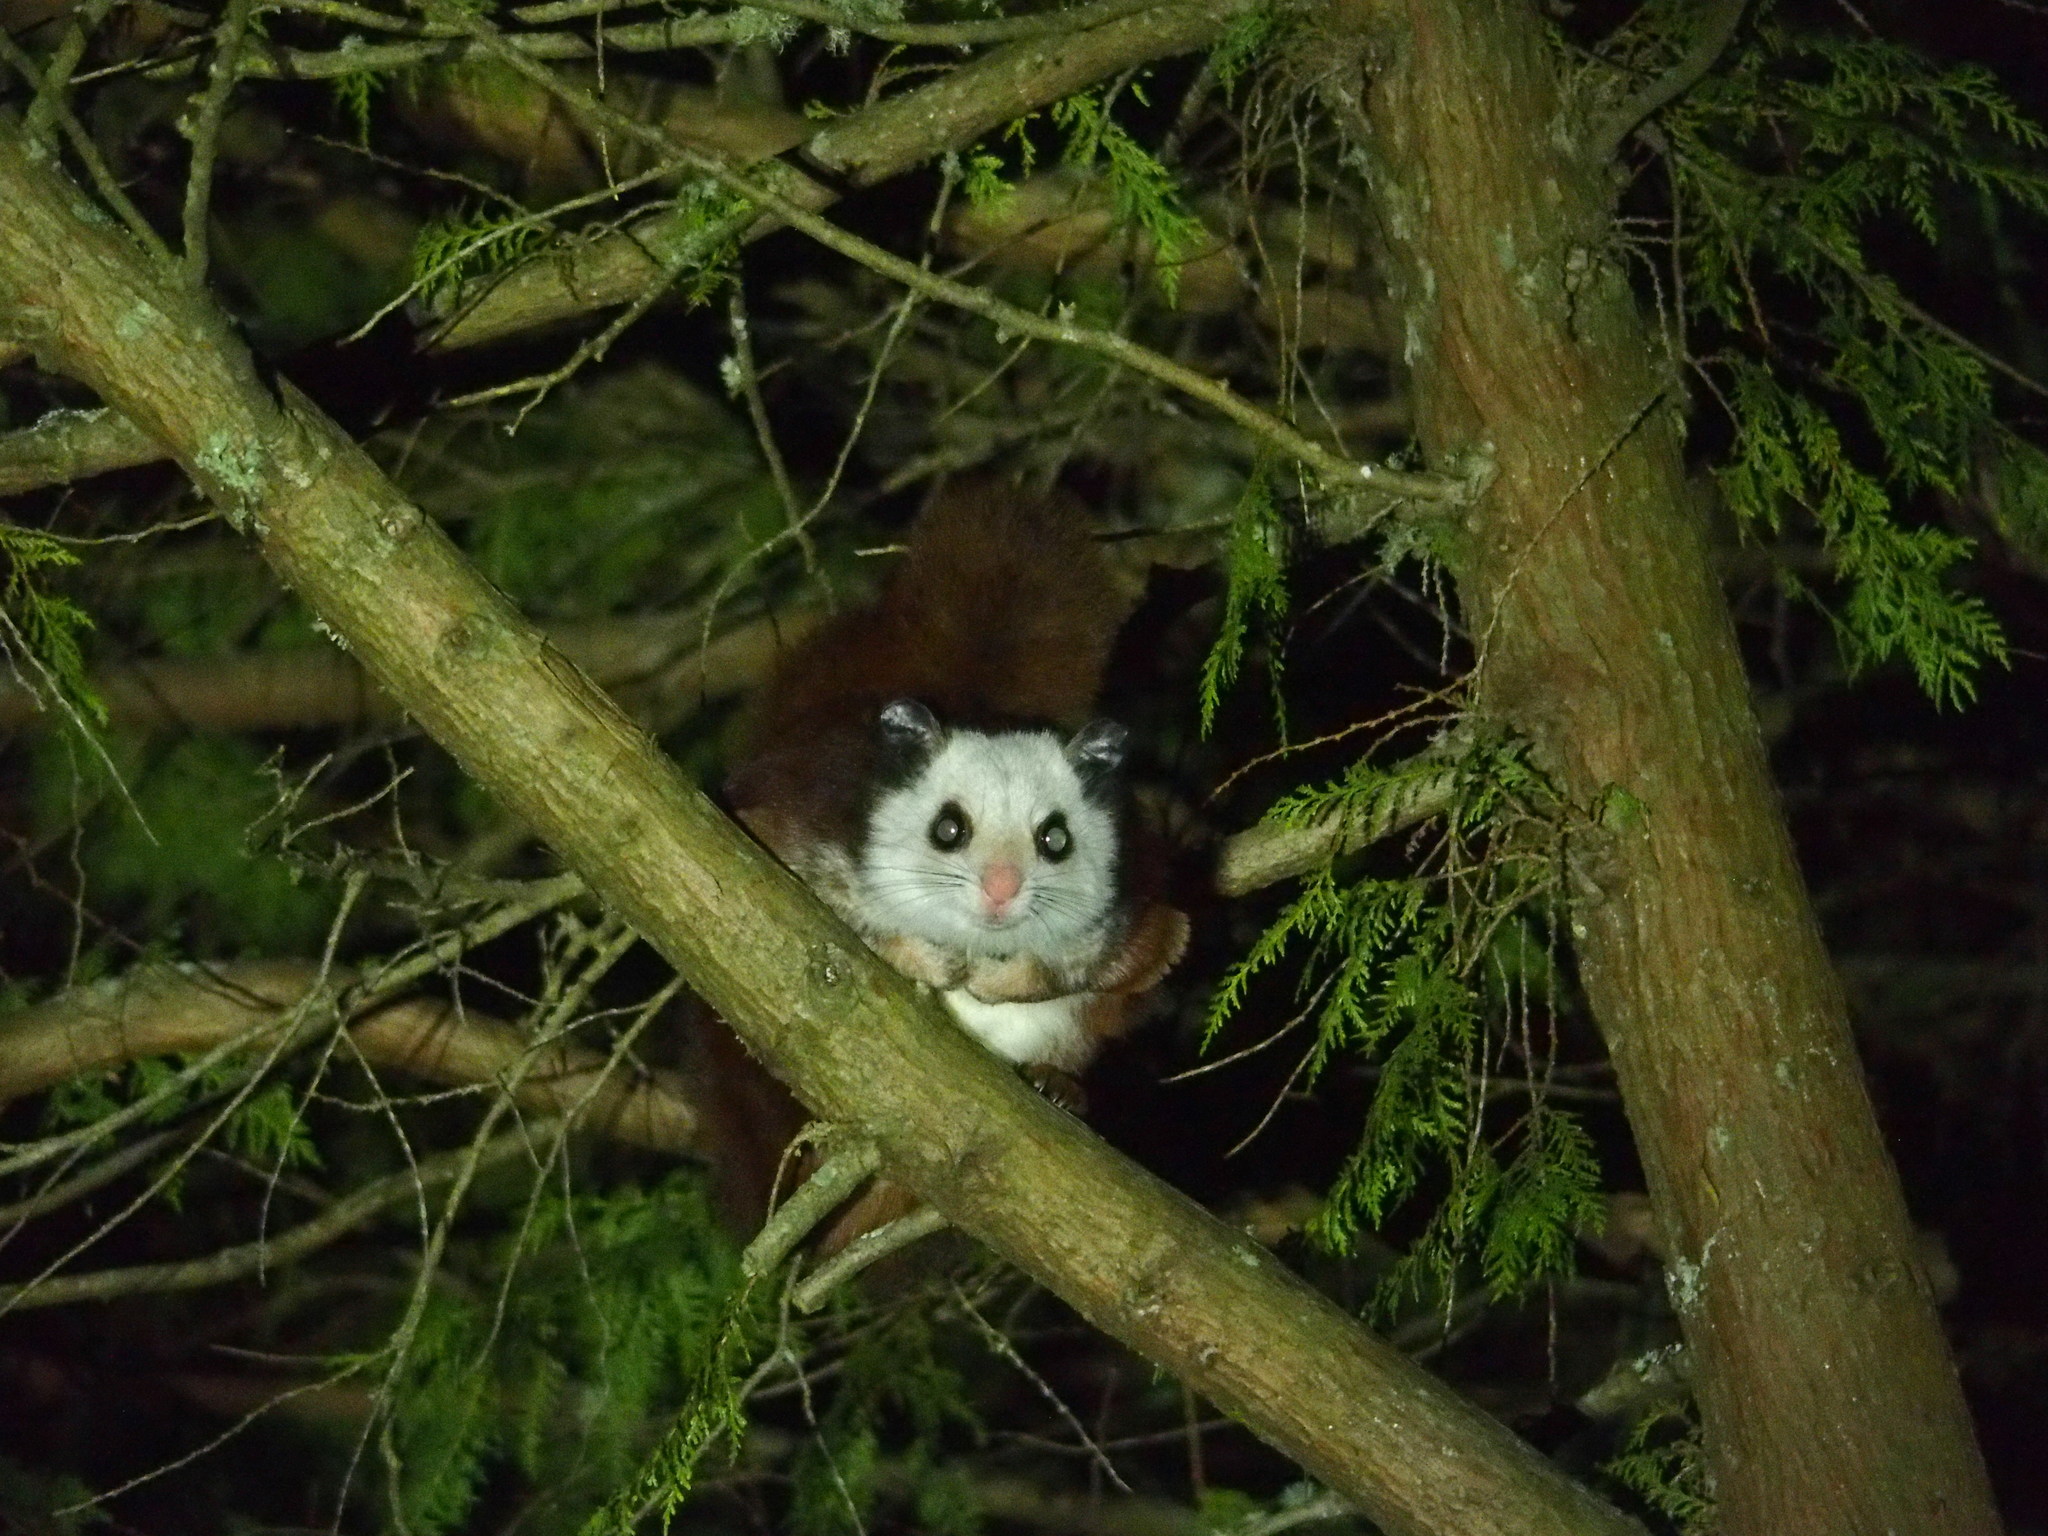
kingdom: Animalia
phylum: Chordata
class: Mammalia
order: Rodentia
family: Sciuridae
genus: Petaurista
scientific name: Petaurista lena
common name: Taiwan giant flying squirrel
